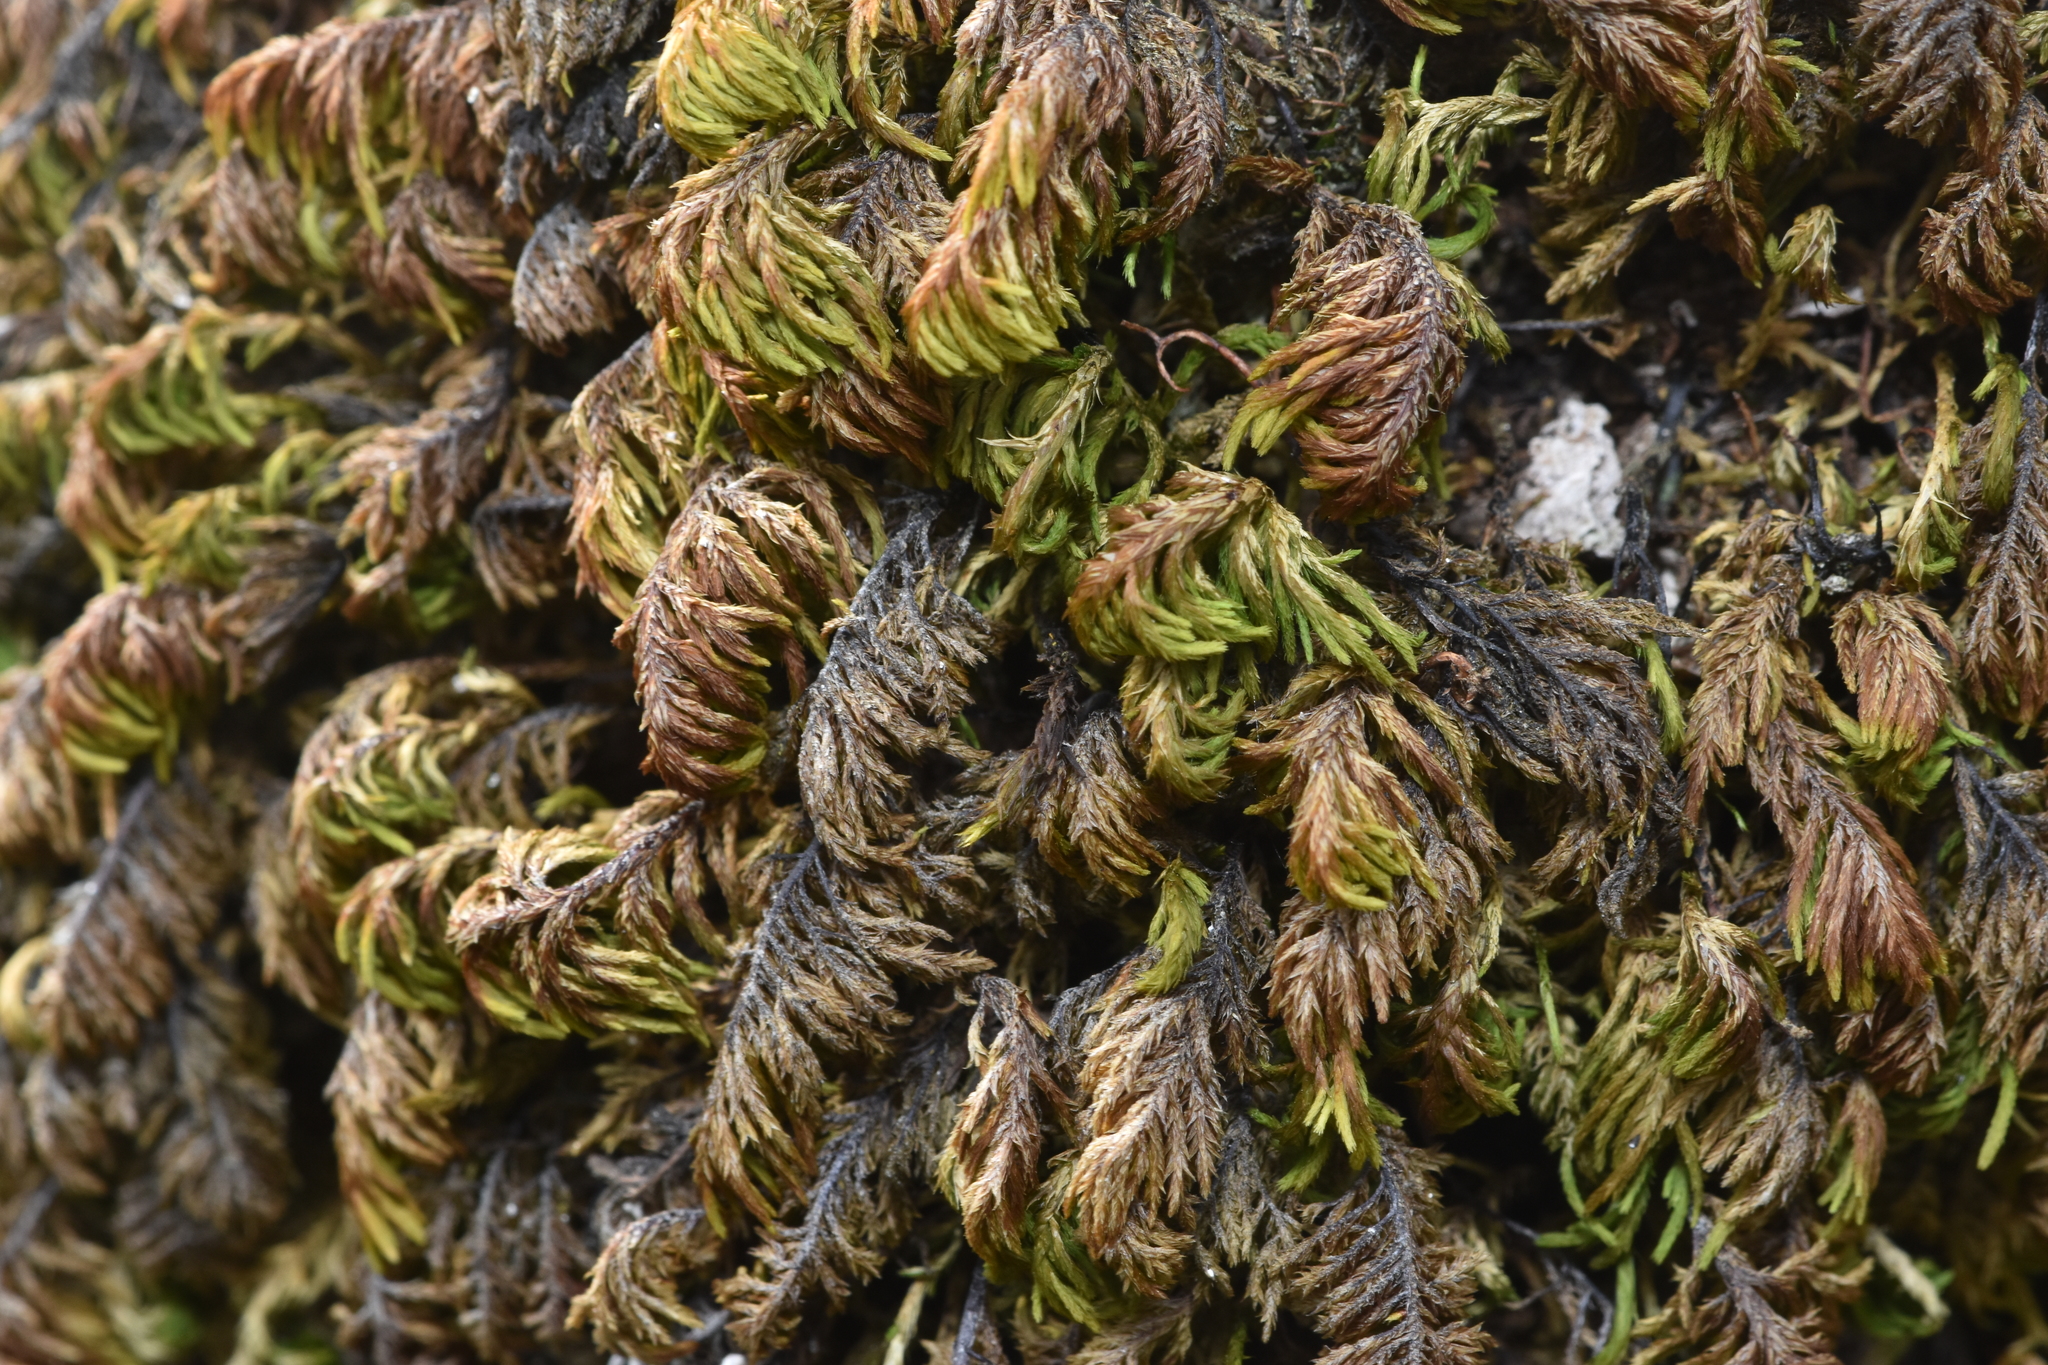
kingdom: Plantae
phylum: Bryophyta
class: Bryopsida
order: Hypnales
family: Cryphaeaceae
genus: Dendroalsia
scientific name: Dendroalsia abietina
